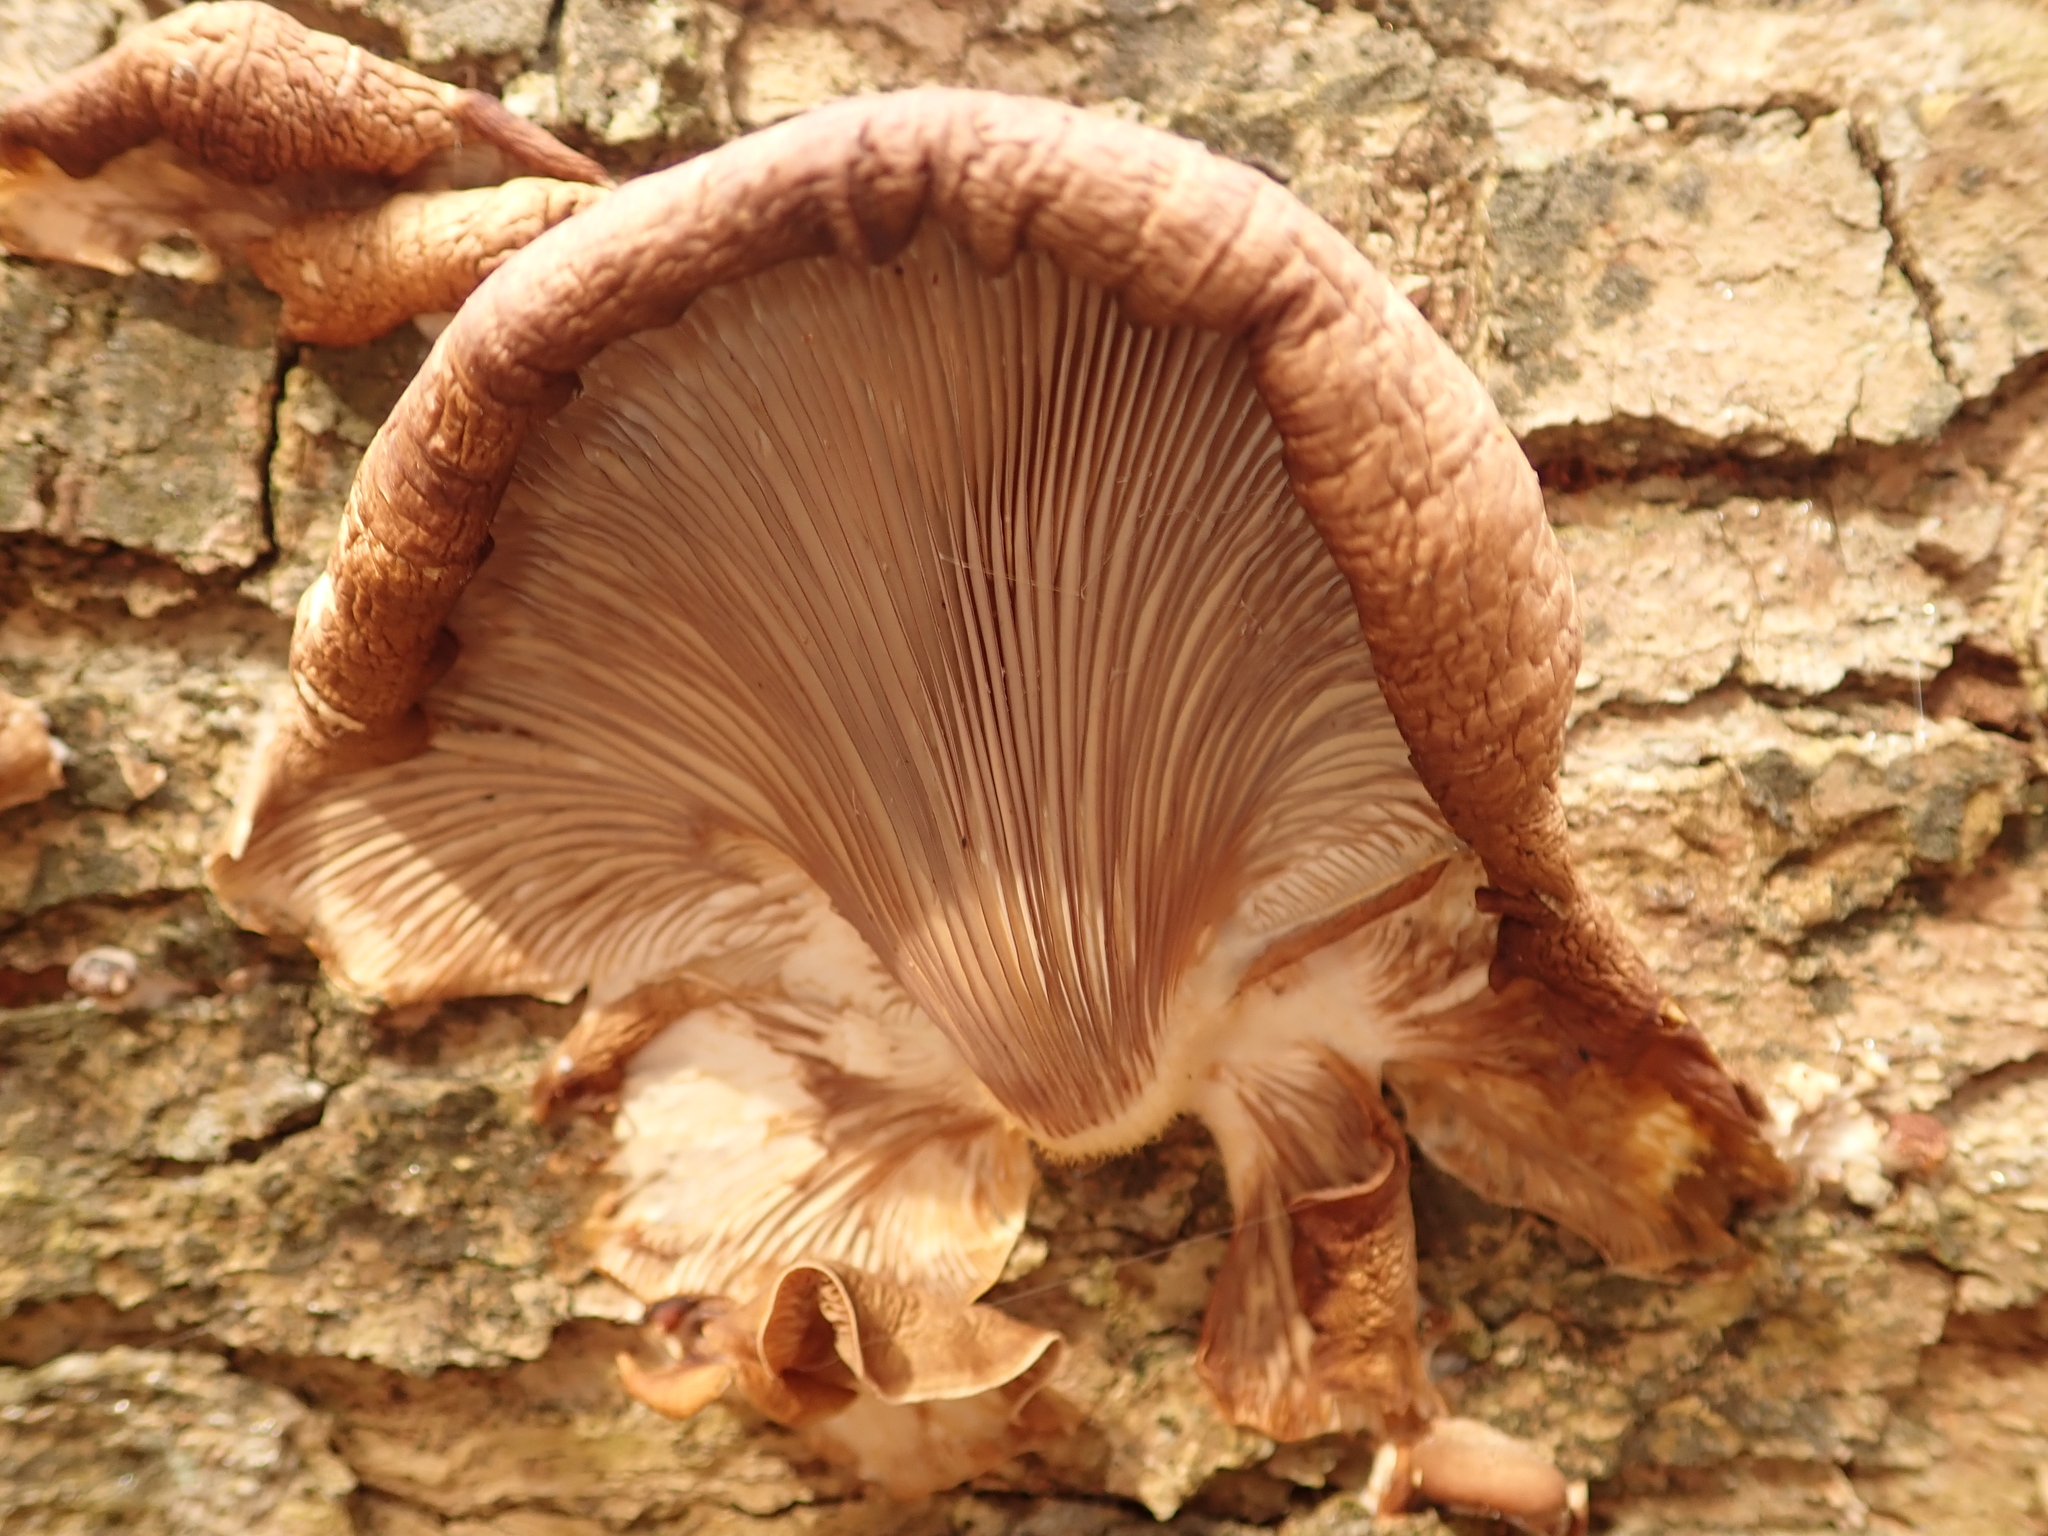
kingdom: Fungi
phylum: Basidiomycota
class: Agaricomycetes
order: Agaricales
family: Pleurotaceae
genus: Pleurotus
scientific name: Pleurotus ostreatus
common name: Oyster mushroom
